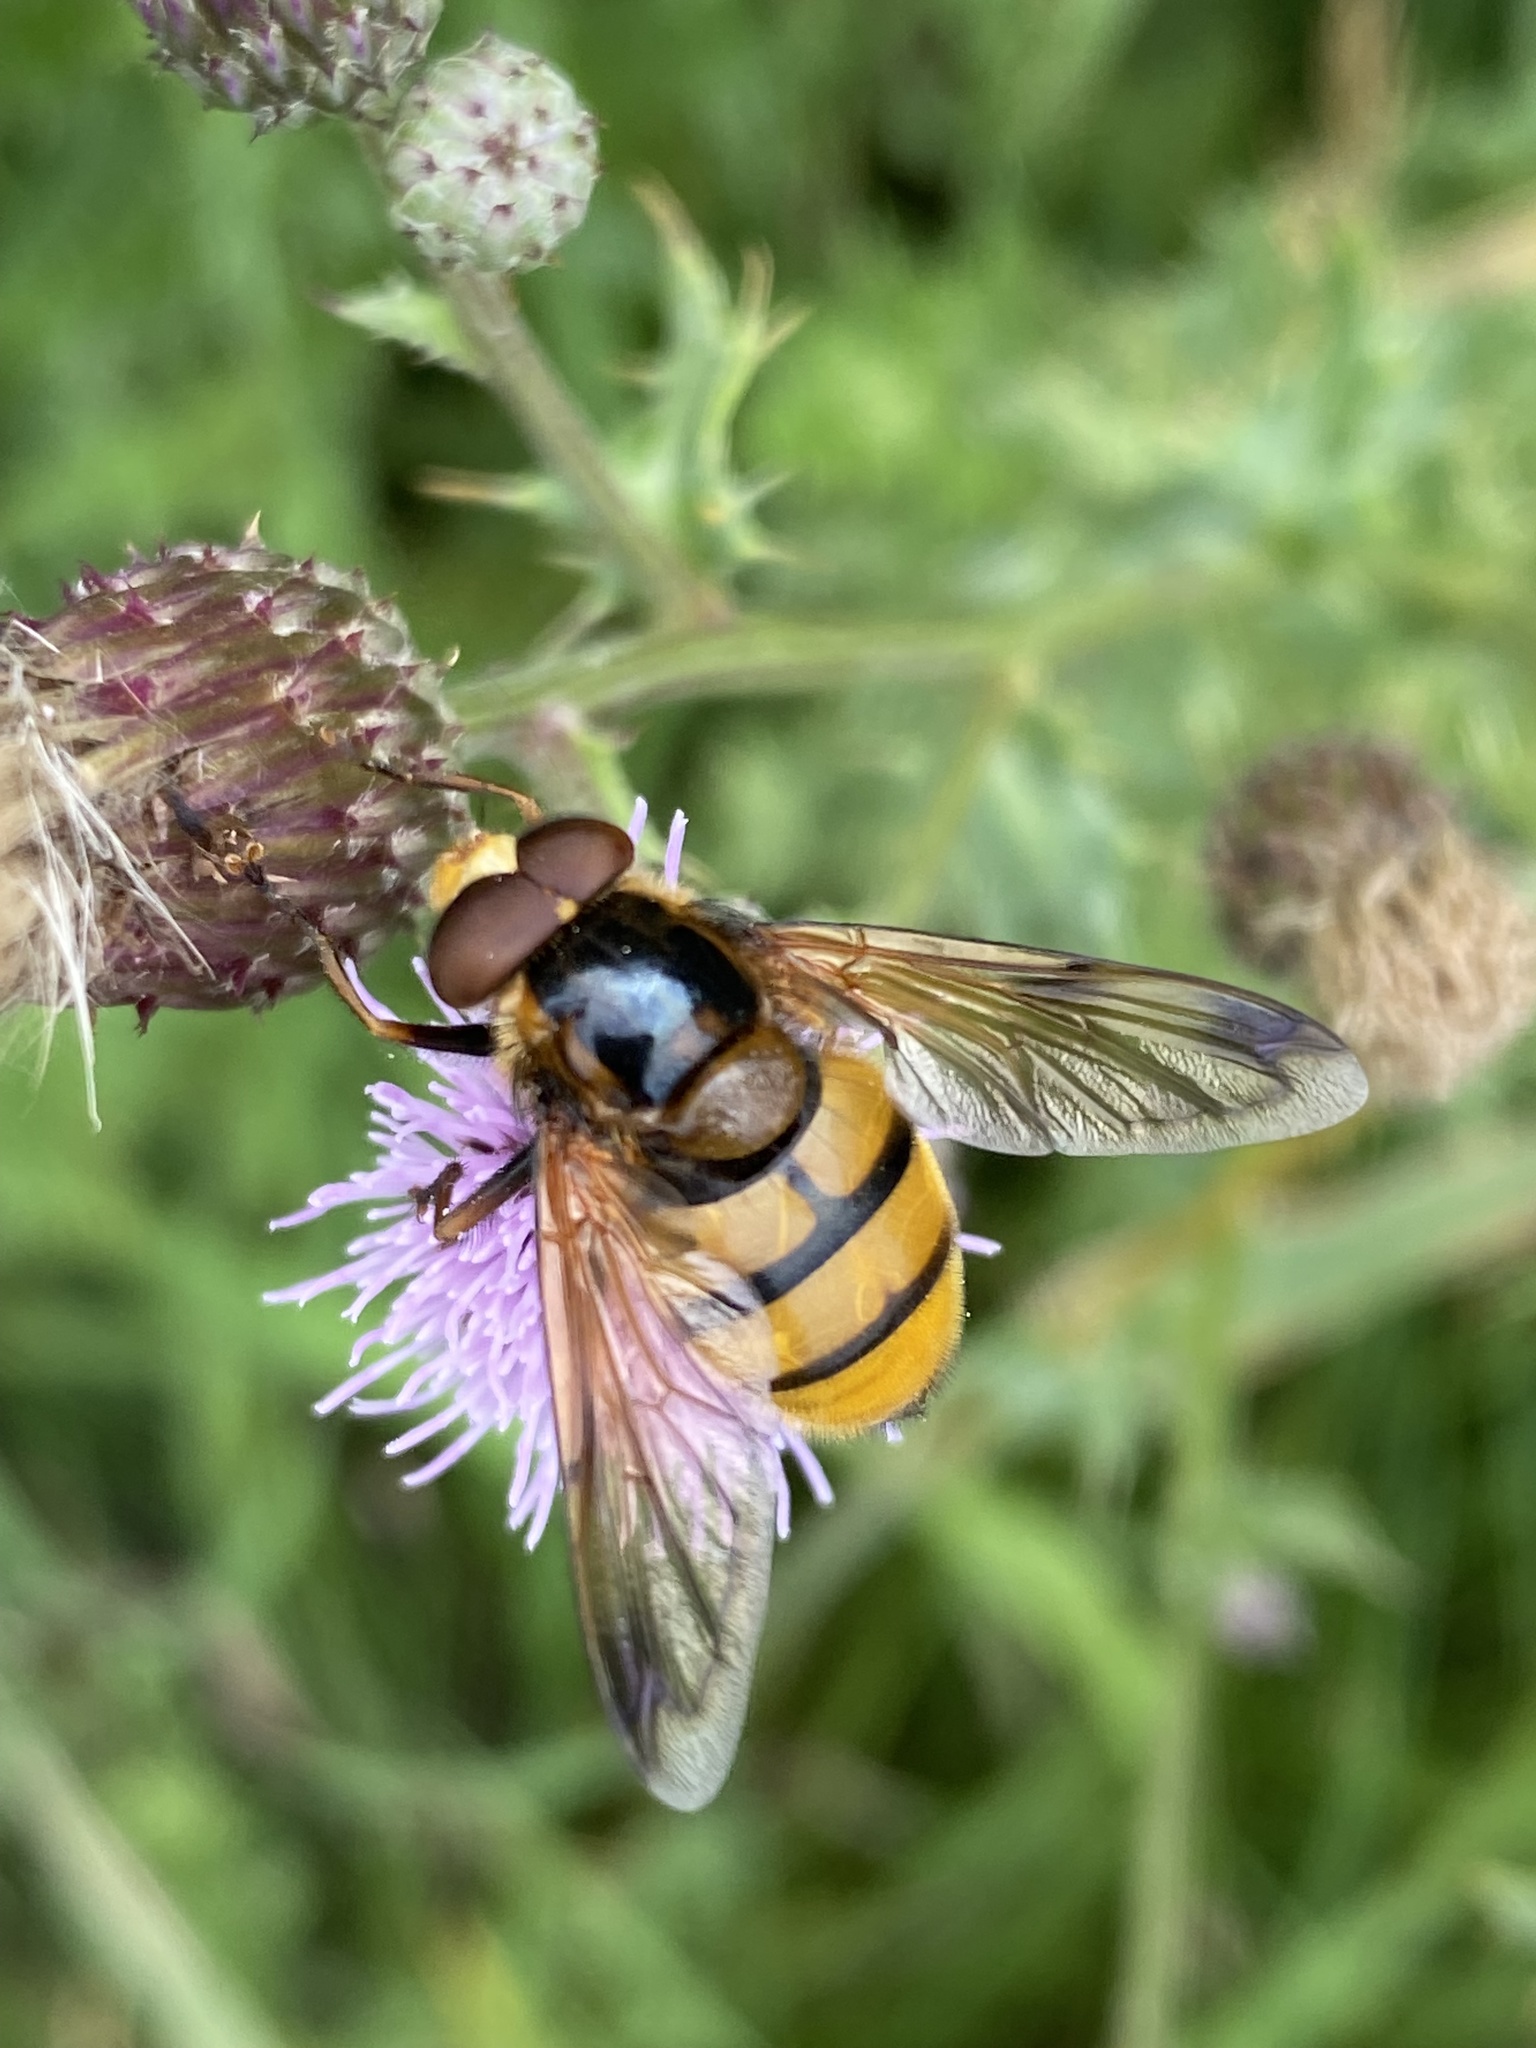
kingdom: Animalia
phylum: Arthropoda
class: Insecta
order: Diptera
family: Syrphidae
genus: Volucella
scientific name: Volucella inanis
